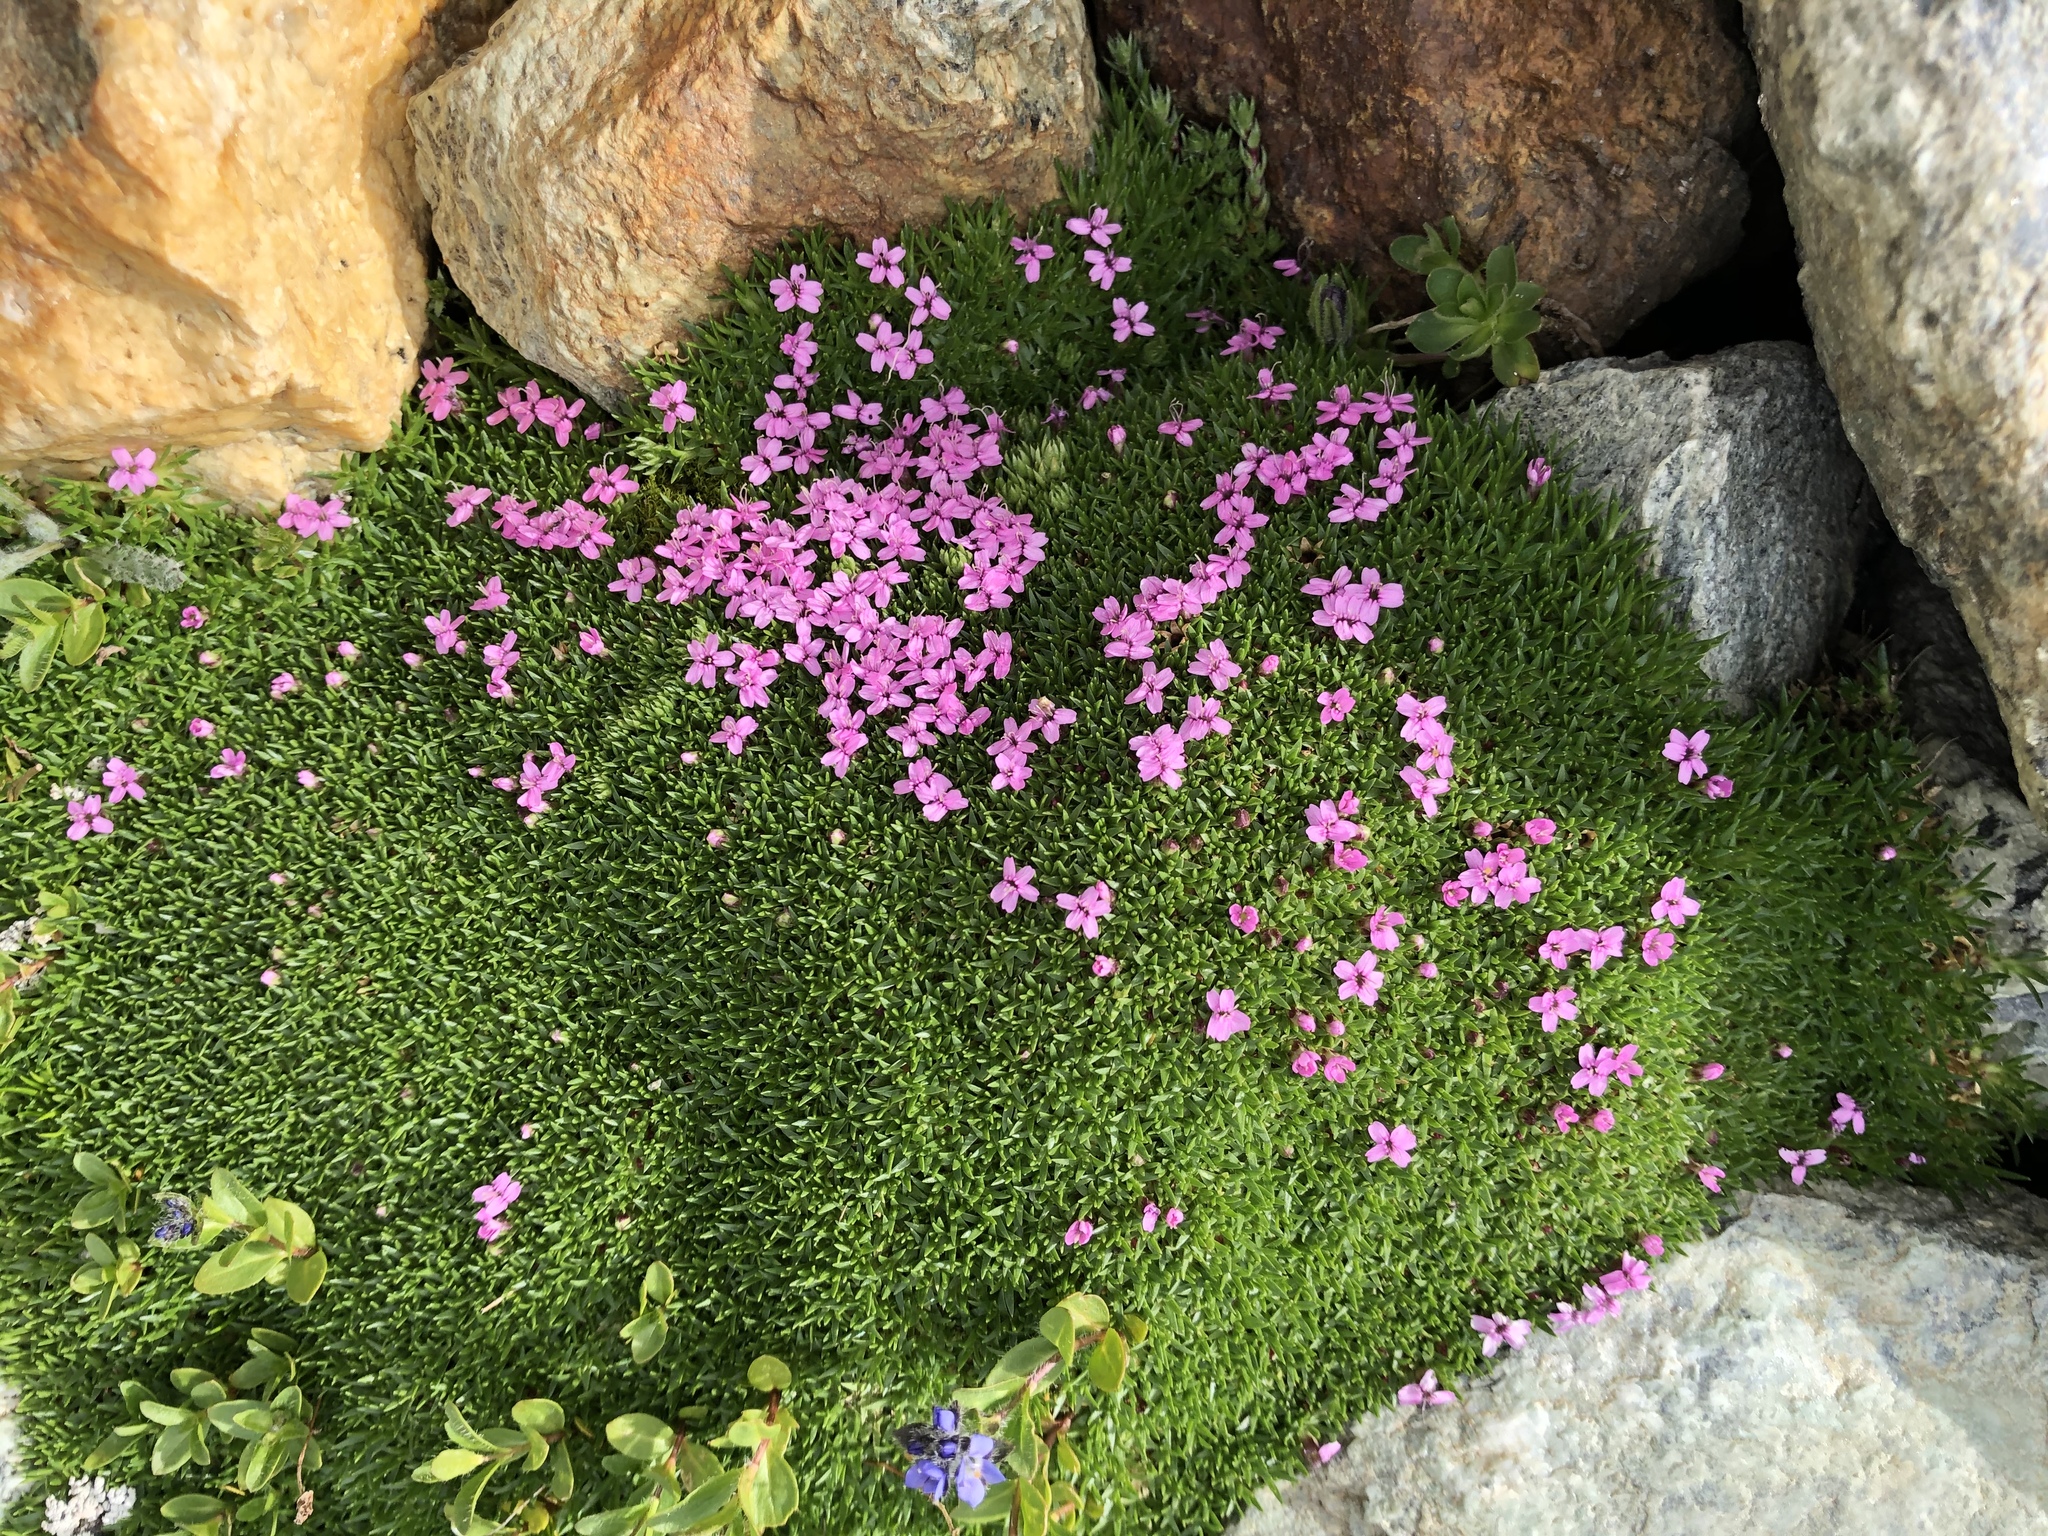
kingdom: Plantae
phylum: Tracheophyta
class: Magnoliopsida
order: Caryophyllales
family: Caryophyllaceae
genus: Silene
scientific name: Silene acaulis
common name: Moss campion
